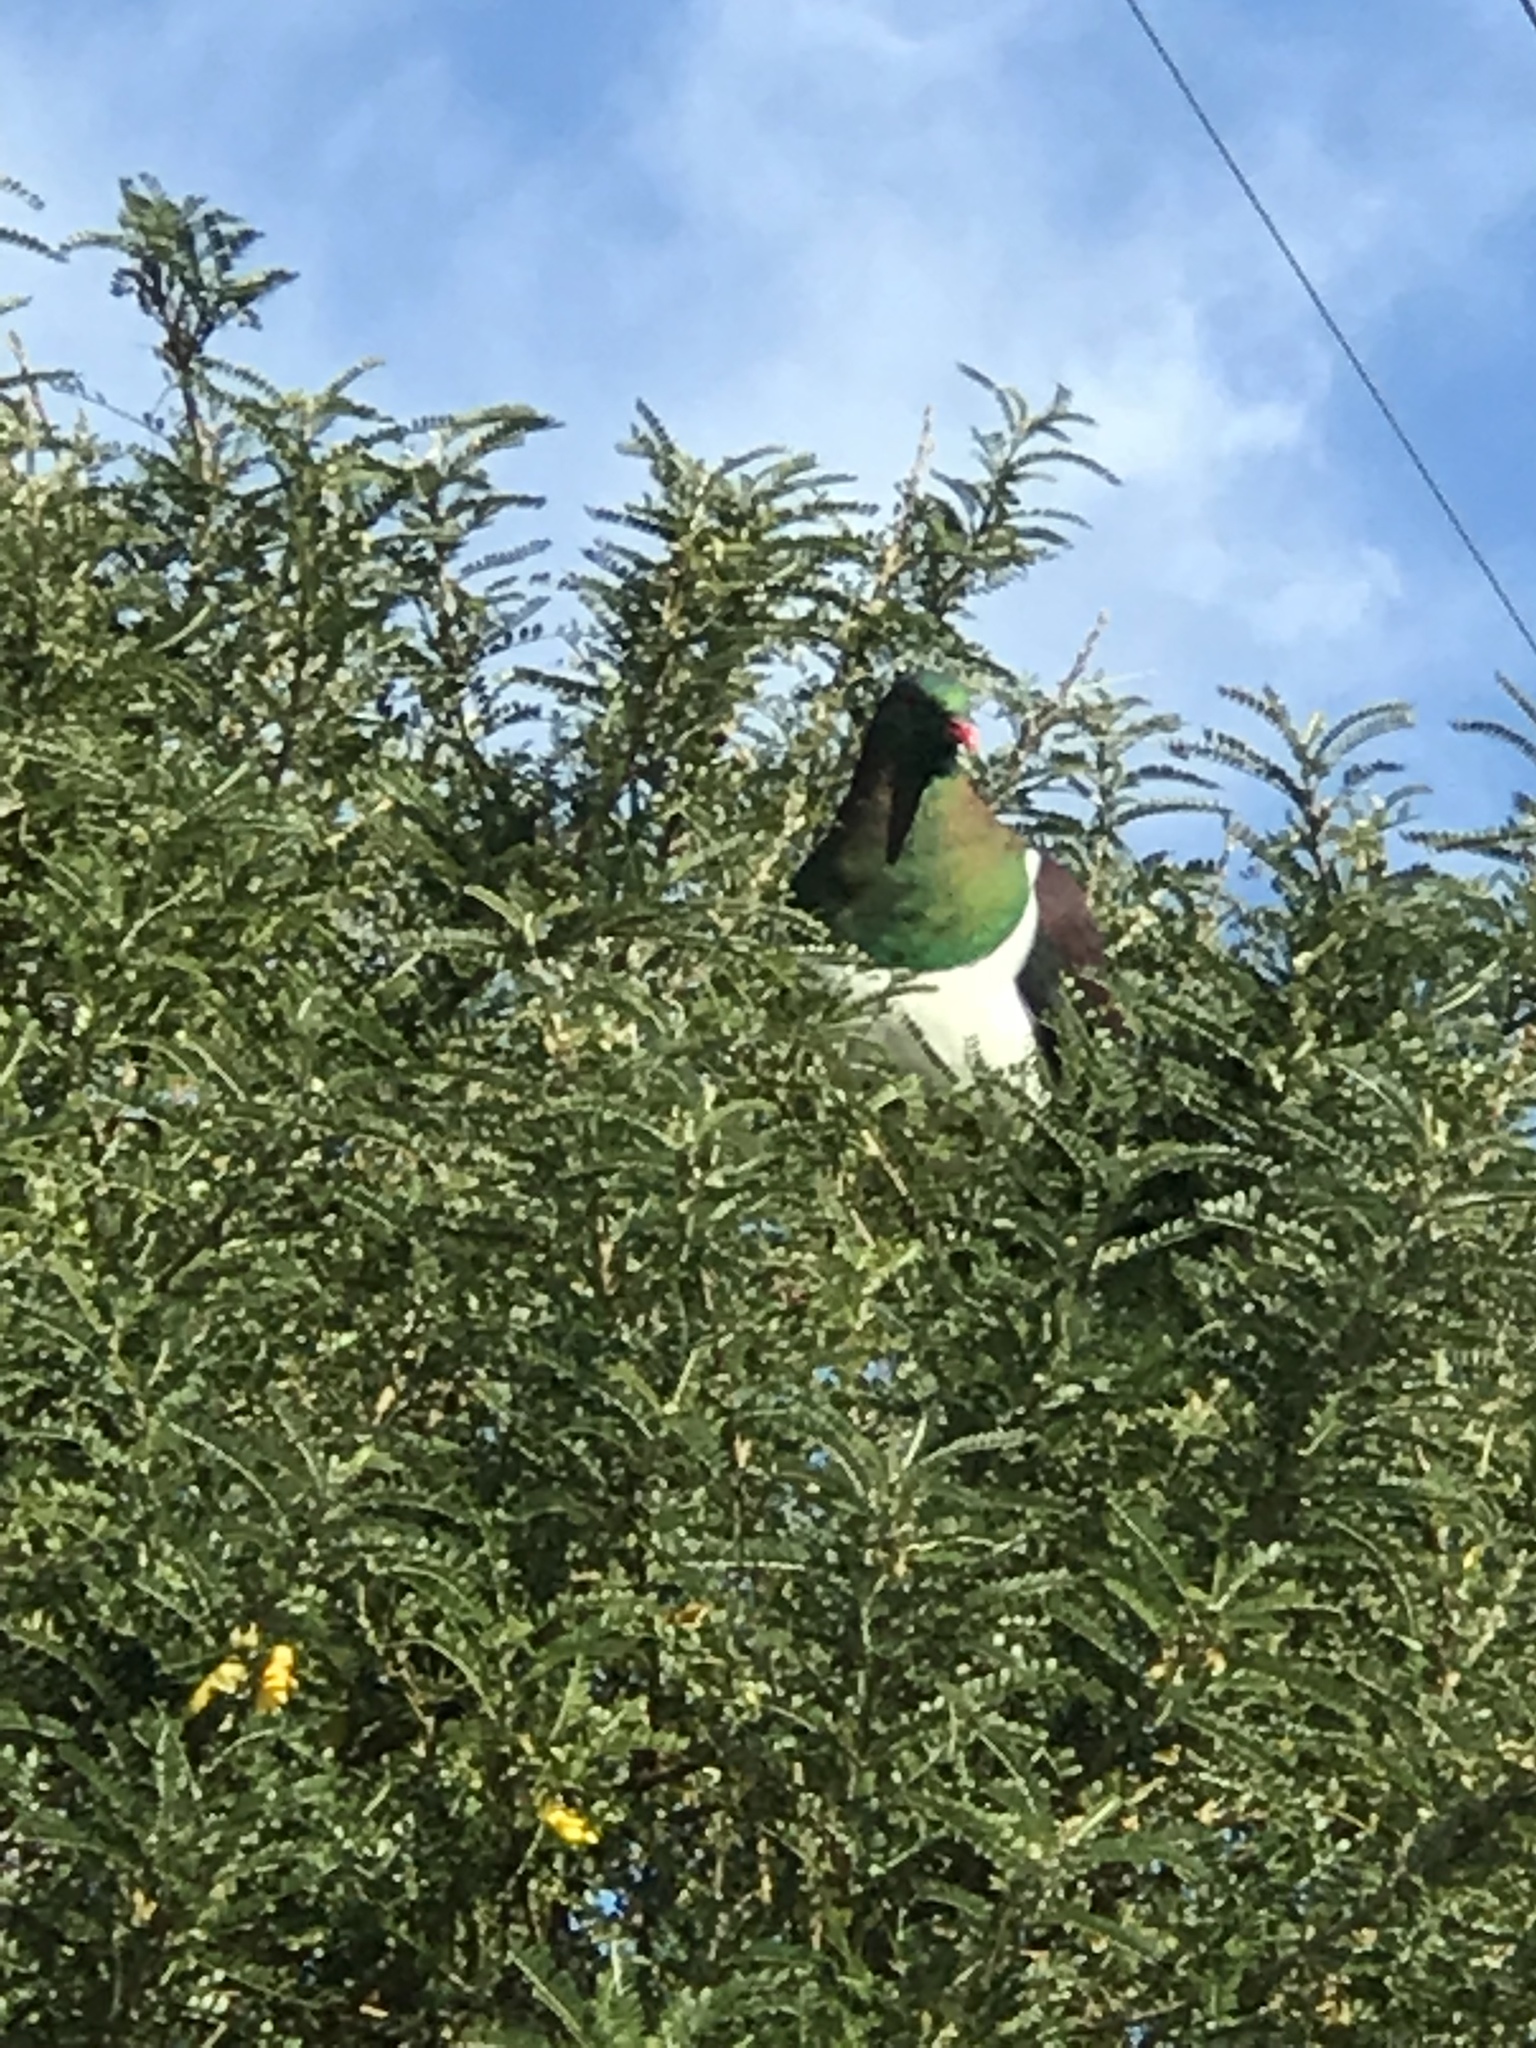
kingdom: Animalia
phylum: Chordata
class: Aves
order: Columbiformes
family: Columbidae
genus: Hemiphaga
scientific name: Hemiphaga novaeseelandiae
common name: New zealand pigeon
